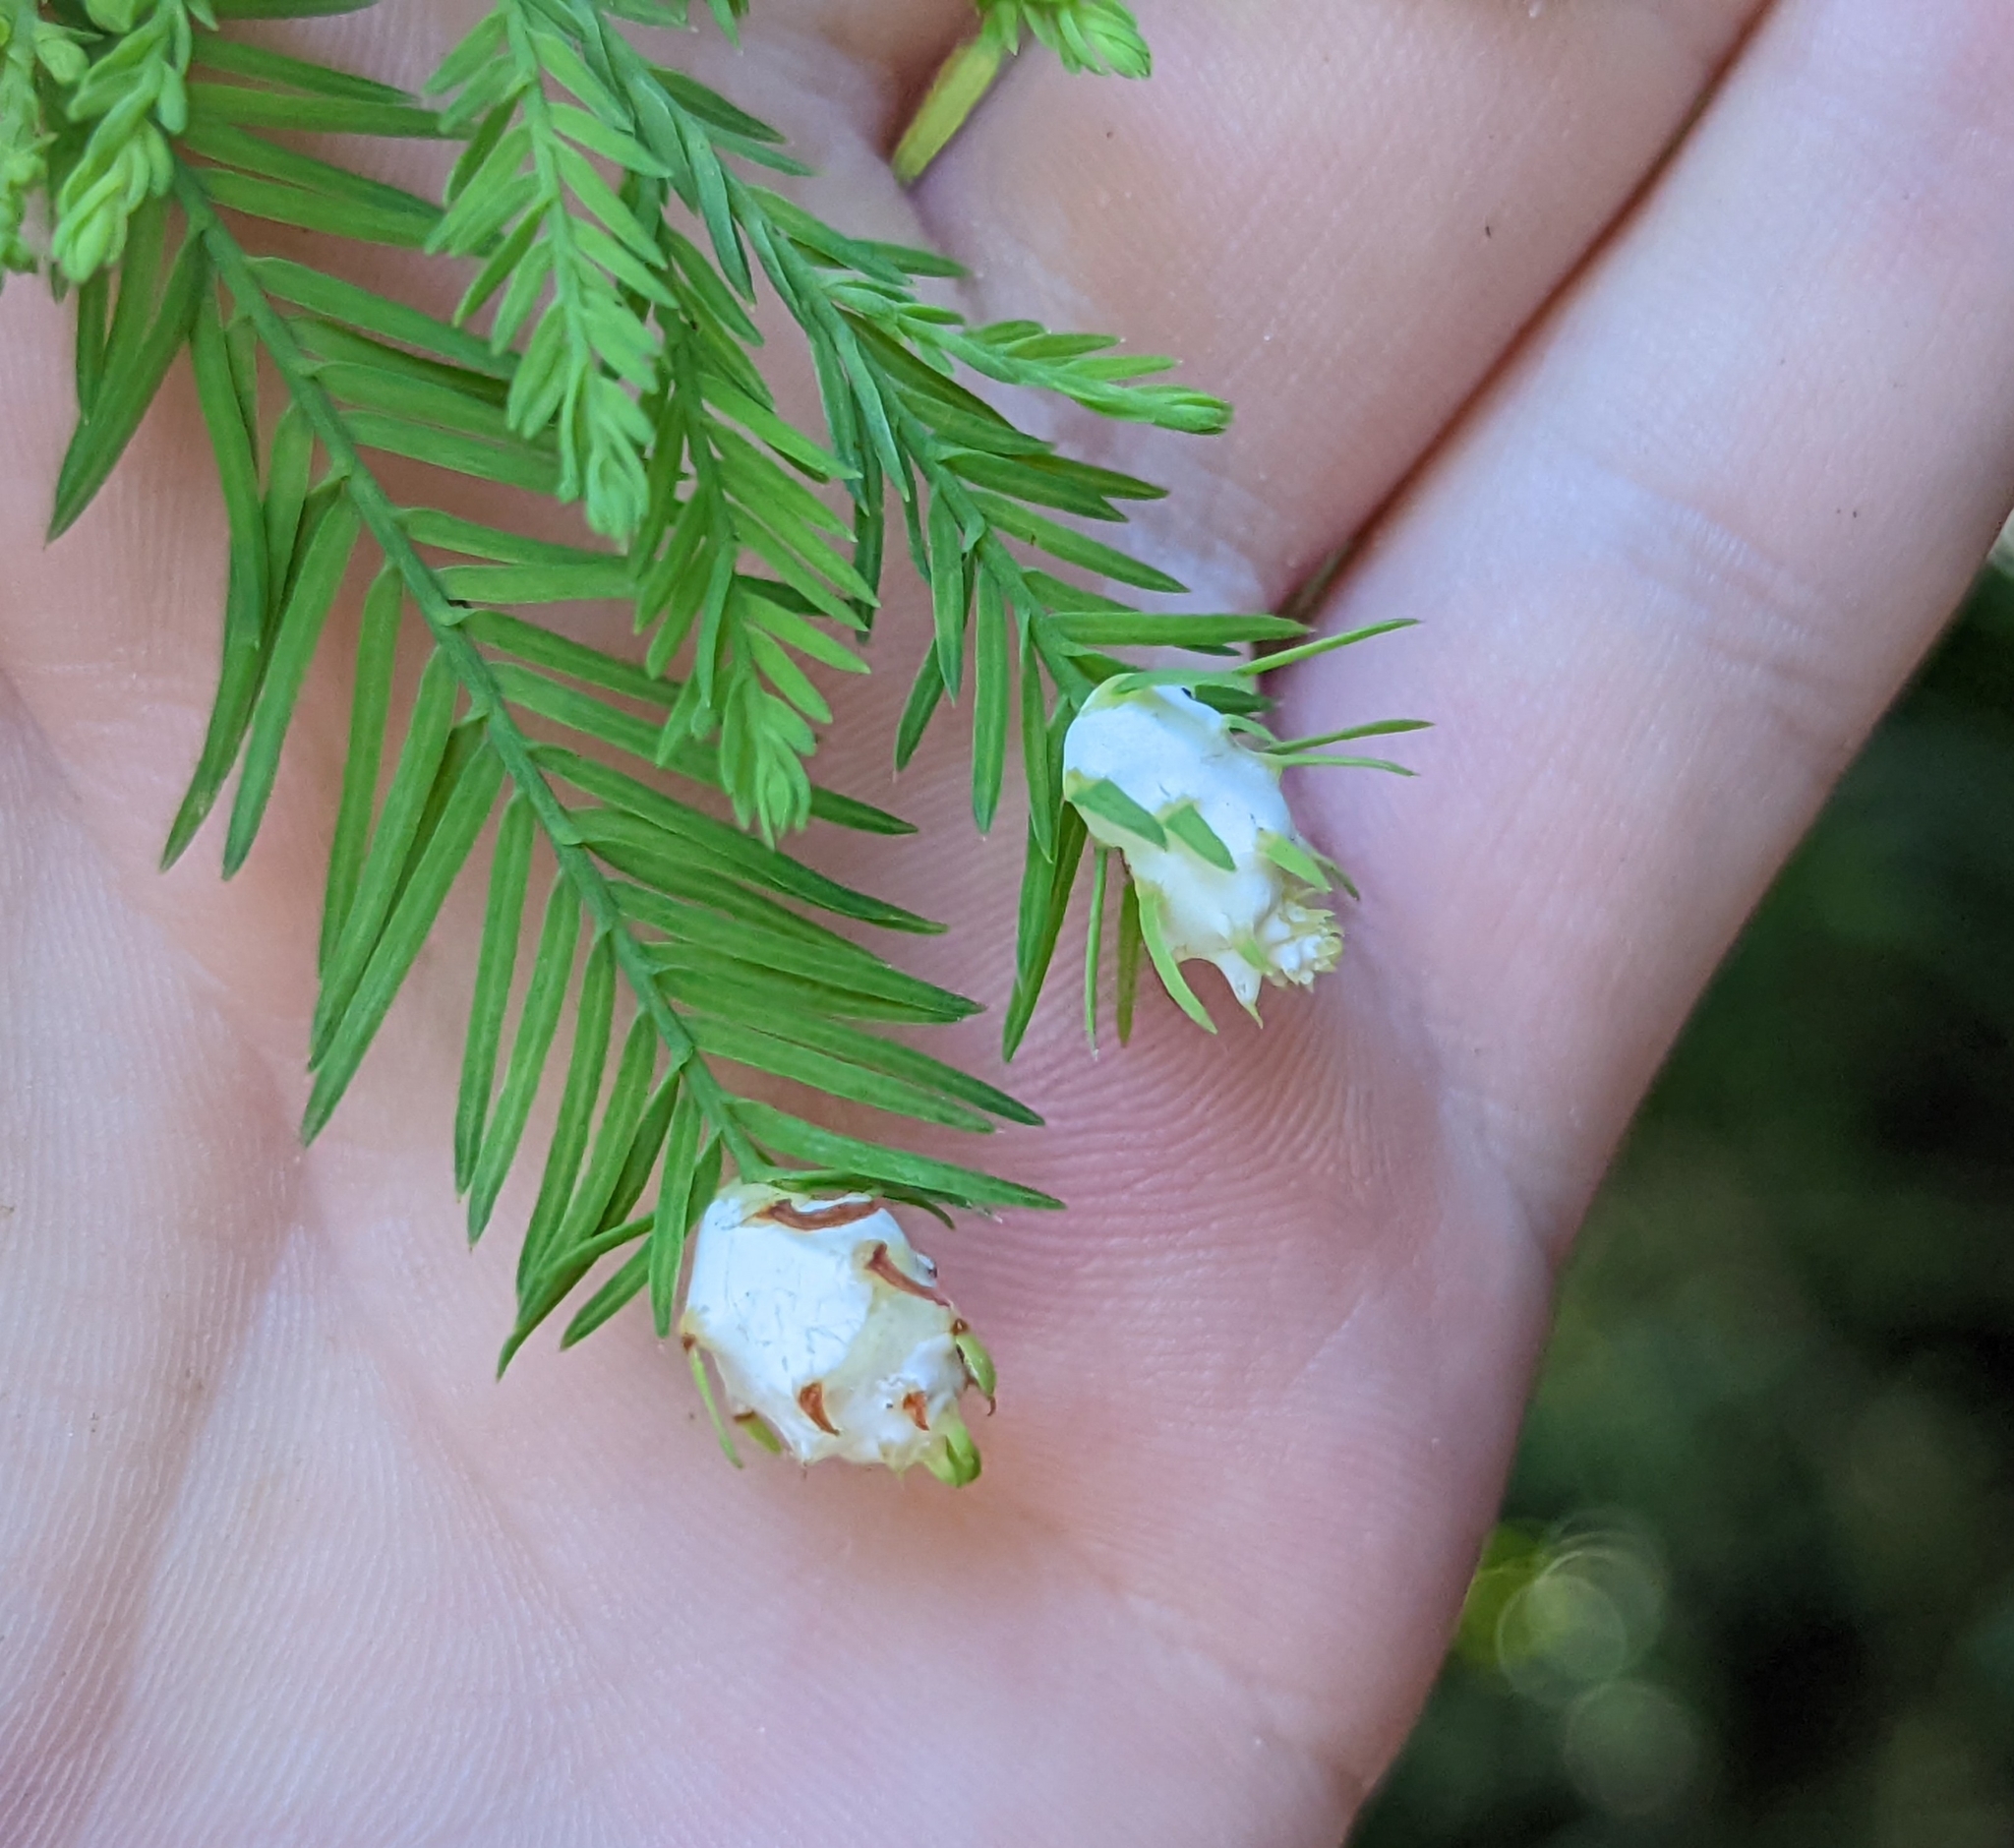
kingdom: Animalia
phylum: Arthropoda
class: Insecta
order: Diptera
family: Cecidomyiidae
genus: Taxodiomyia
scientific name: Taxodiomyia cupressiananassa
